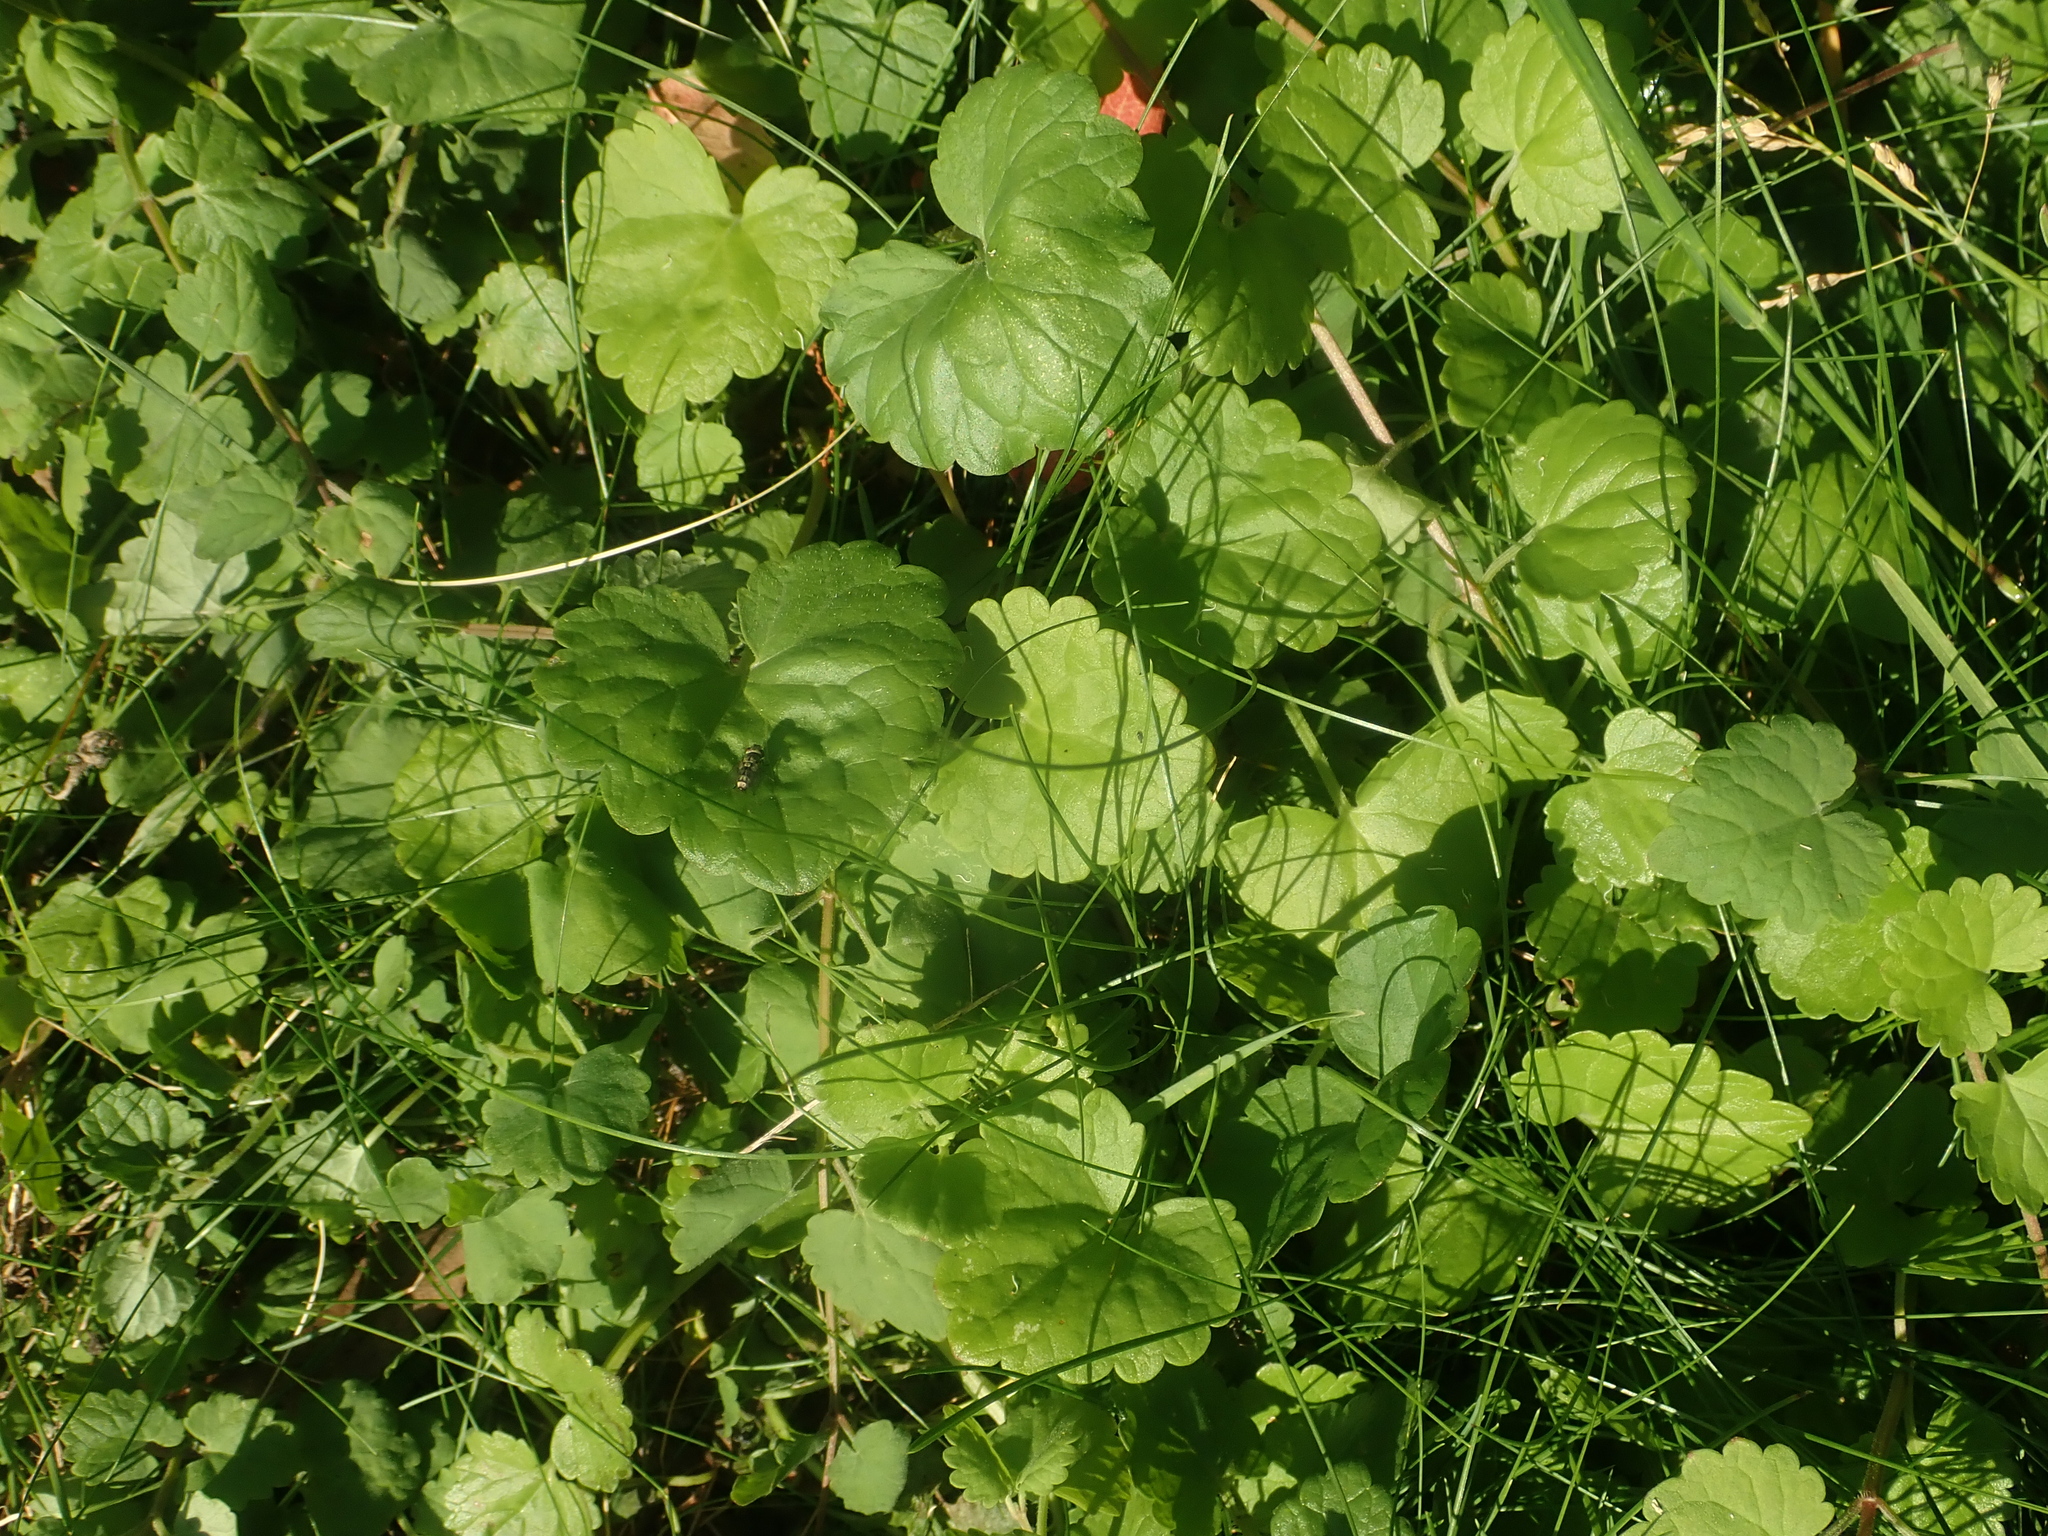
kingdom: Plantae
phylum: Tracheophyta
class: Magnoliopsida
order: Lamiales
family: Lamiaceae
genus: Glechoma
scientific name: Glechoma hederacea
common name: Ground ivy
